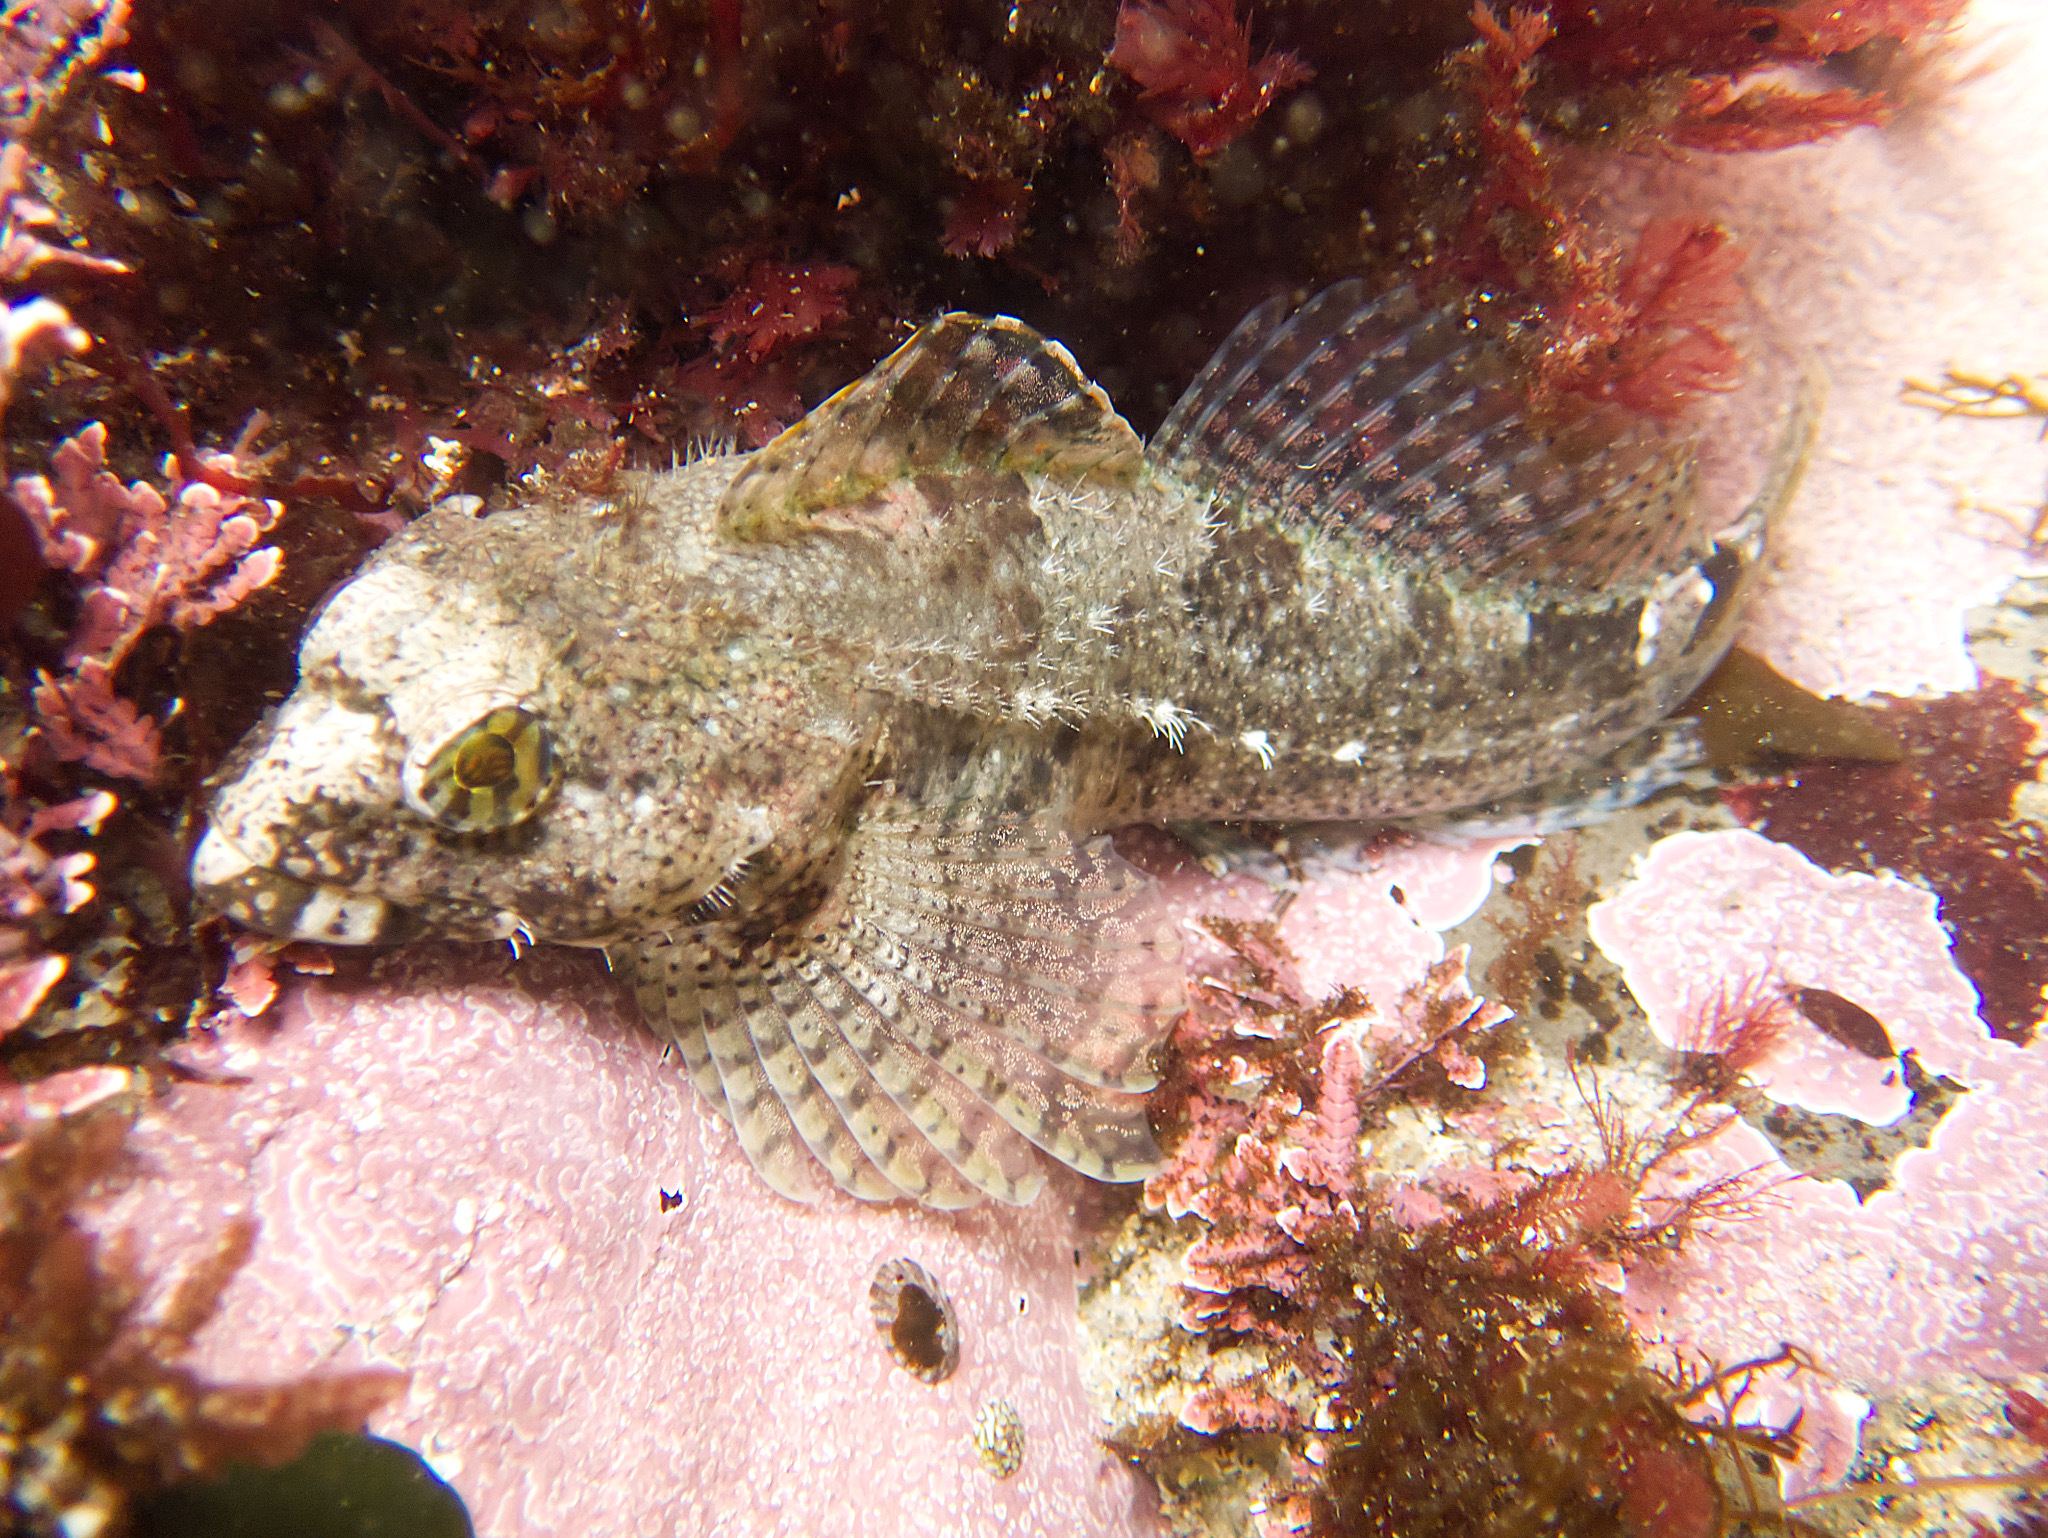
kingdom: Animalia
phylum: Chordata
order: Scorpaeniformes
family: Cottidae
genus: Clinocottus
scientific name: Clinocottus analis
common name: Woolly sculpin
